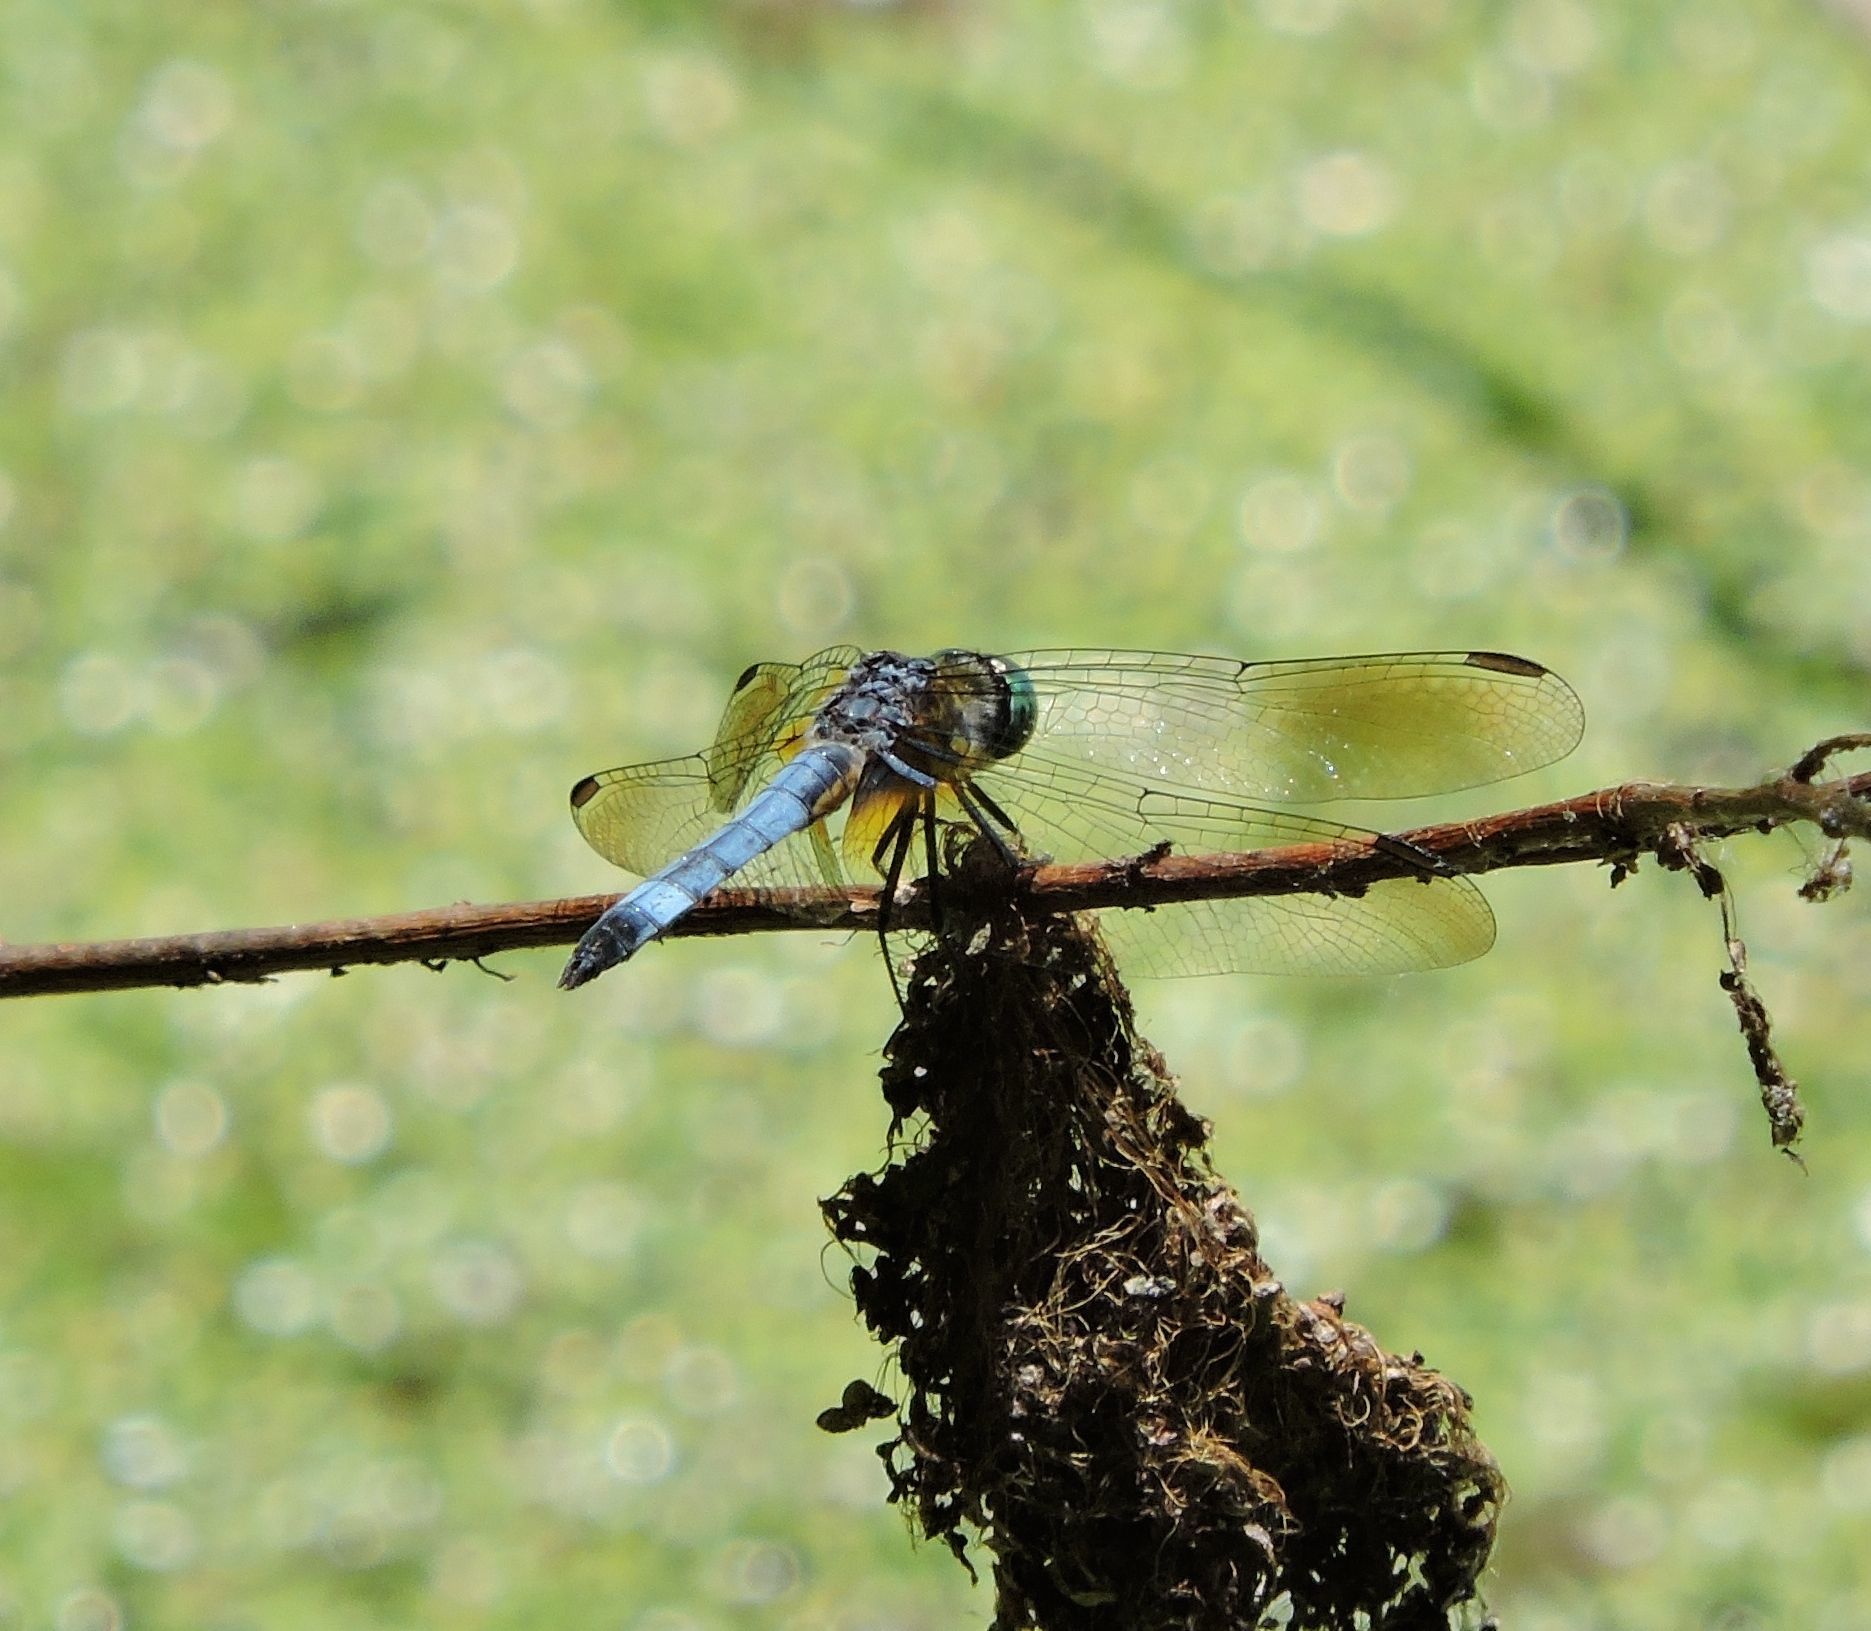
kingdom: Animalia
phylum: Arthropoda
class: Insecta
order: Odonata
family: Libellulidae
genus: Pachydiplax
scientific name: Pachydiplax longipennis
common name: Blue dasher
